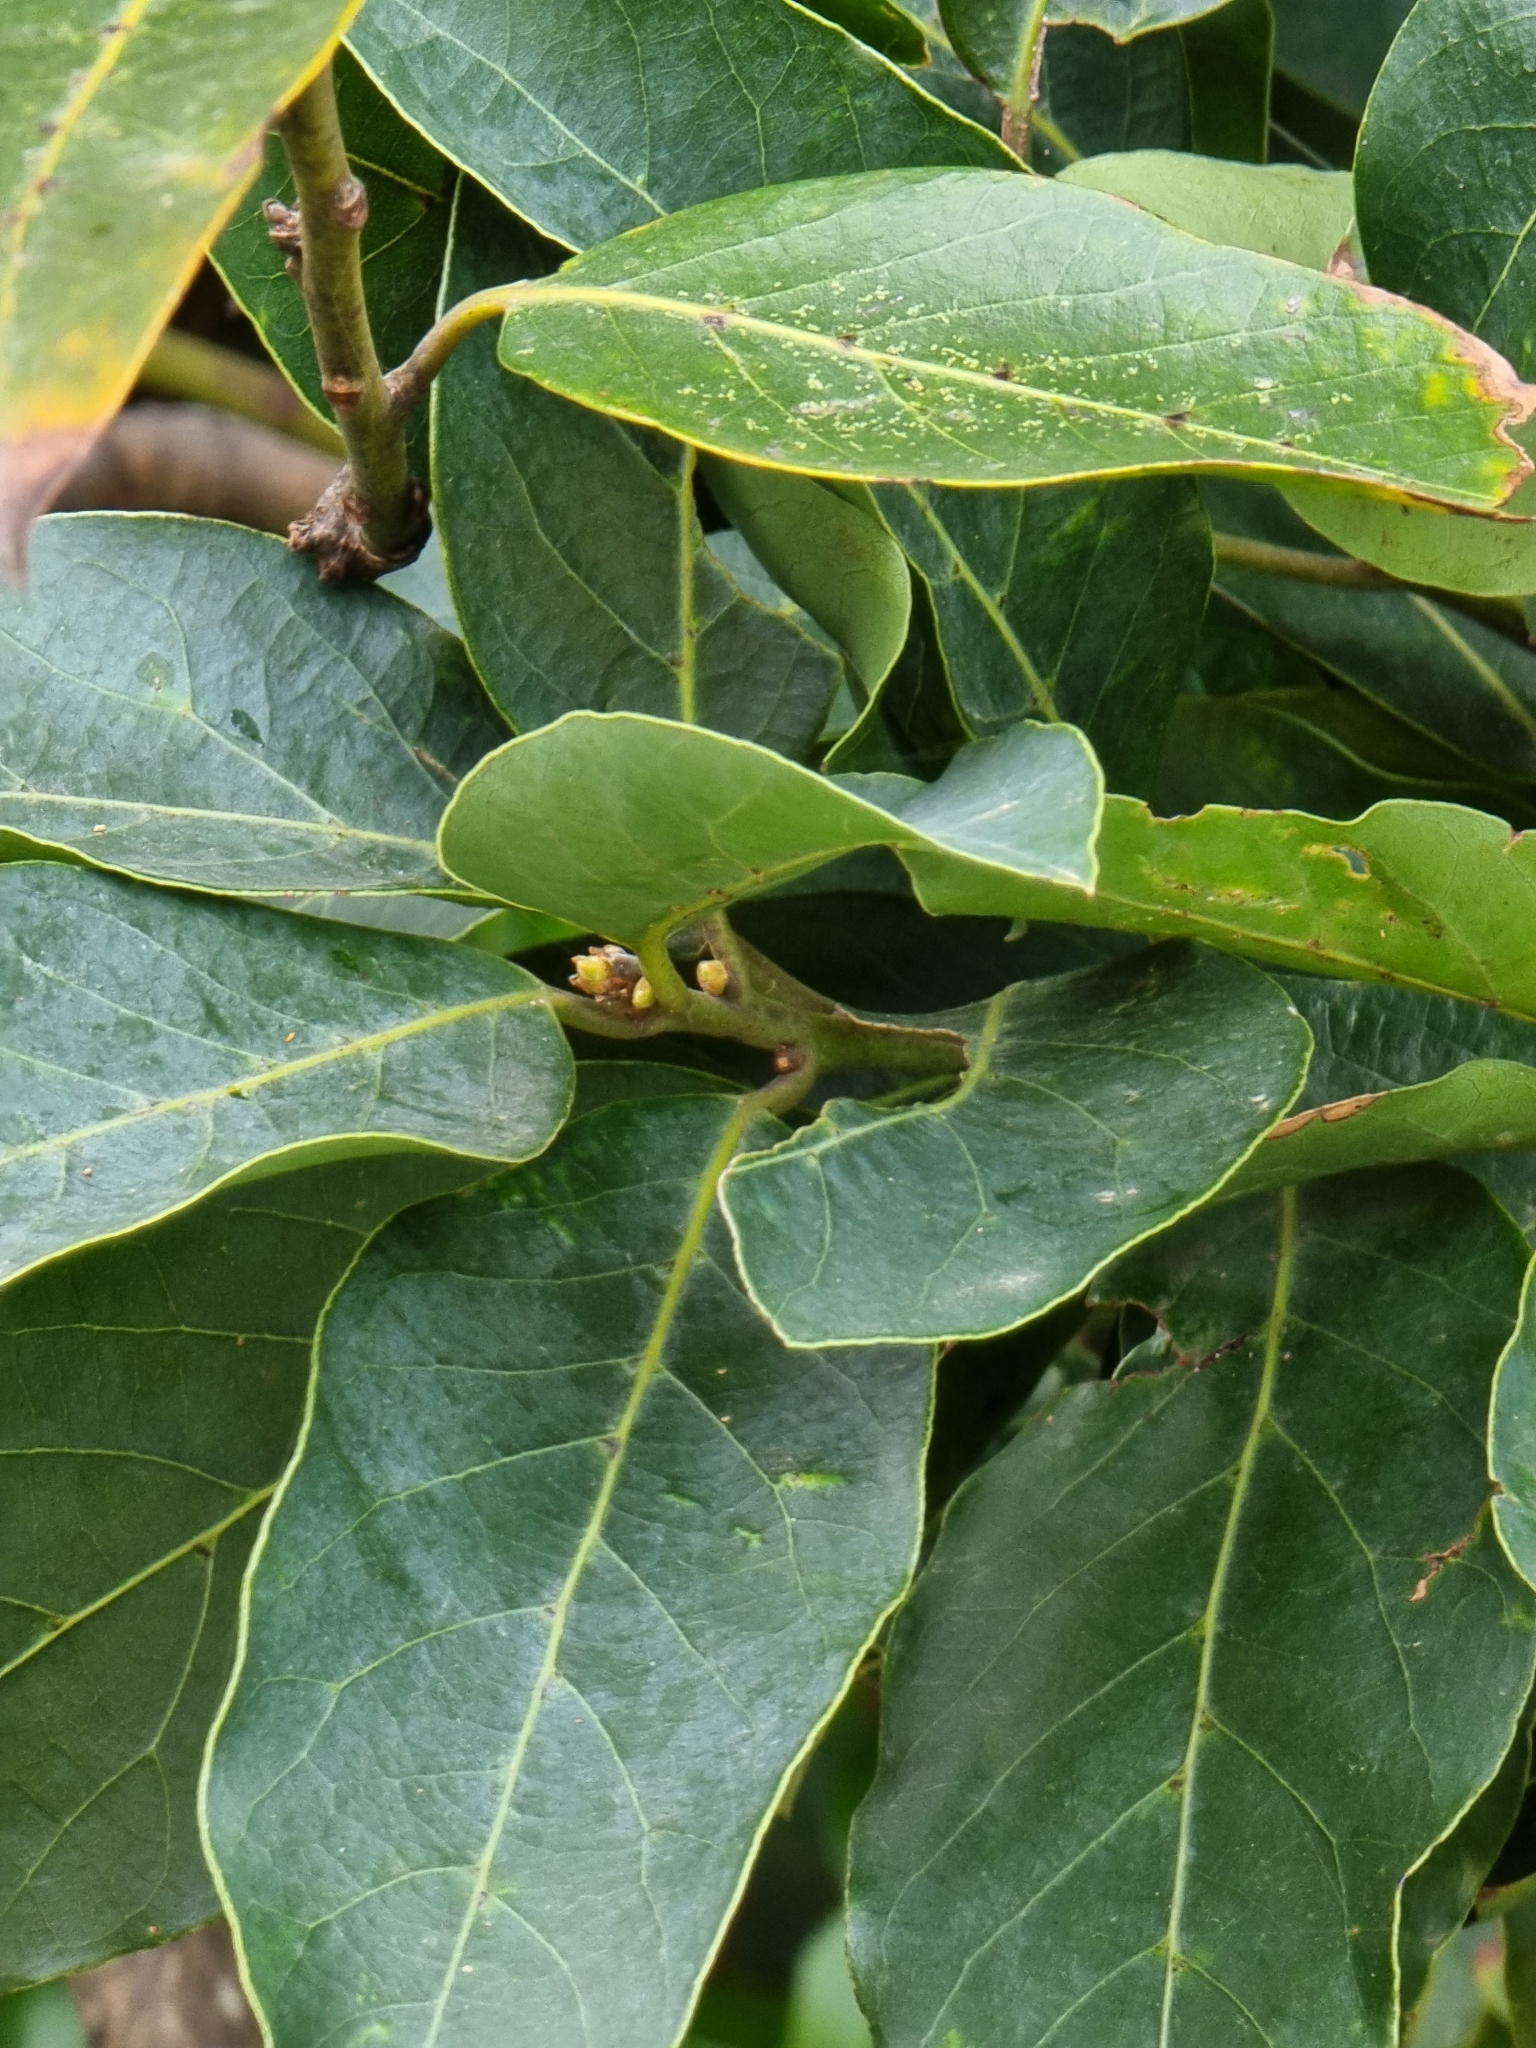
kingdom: Plantae
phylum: Tracheophyta
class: Magnoliopsida
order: Laurales
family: Lauraceae
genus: Laurus
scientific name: Laurus novocanariensis
